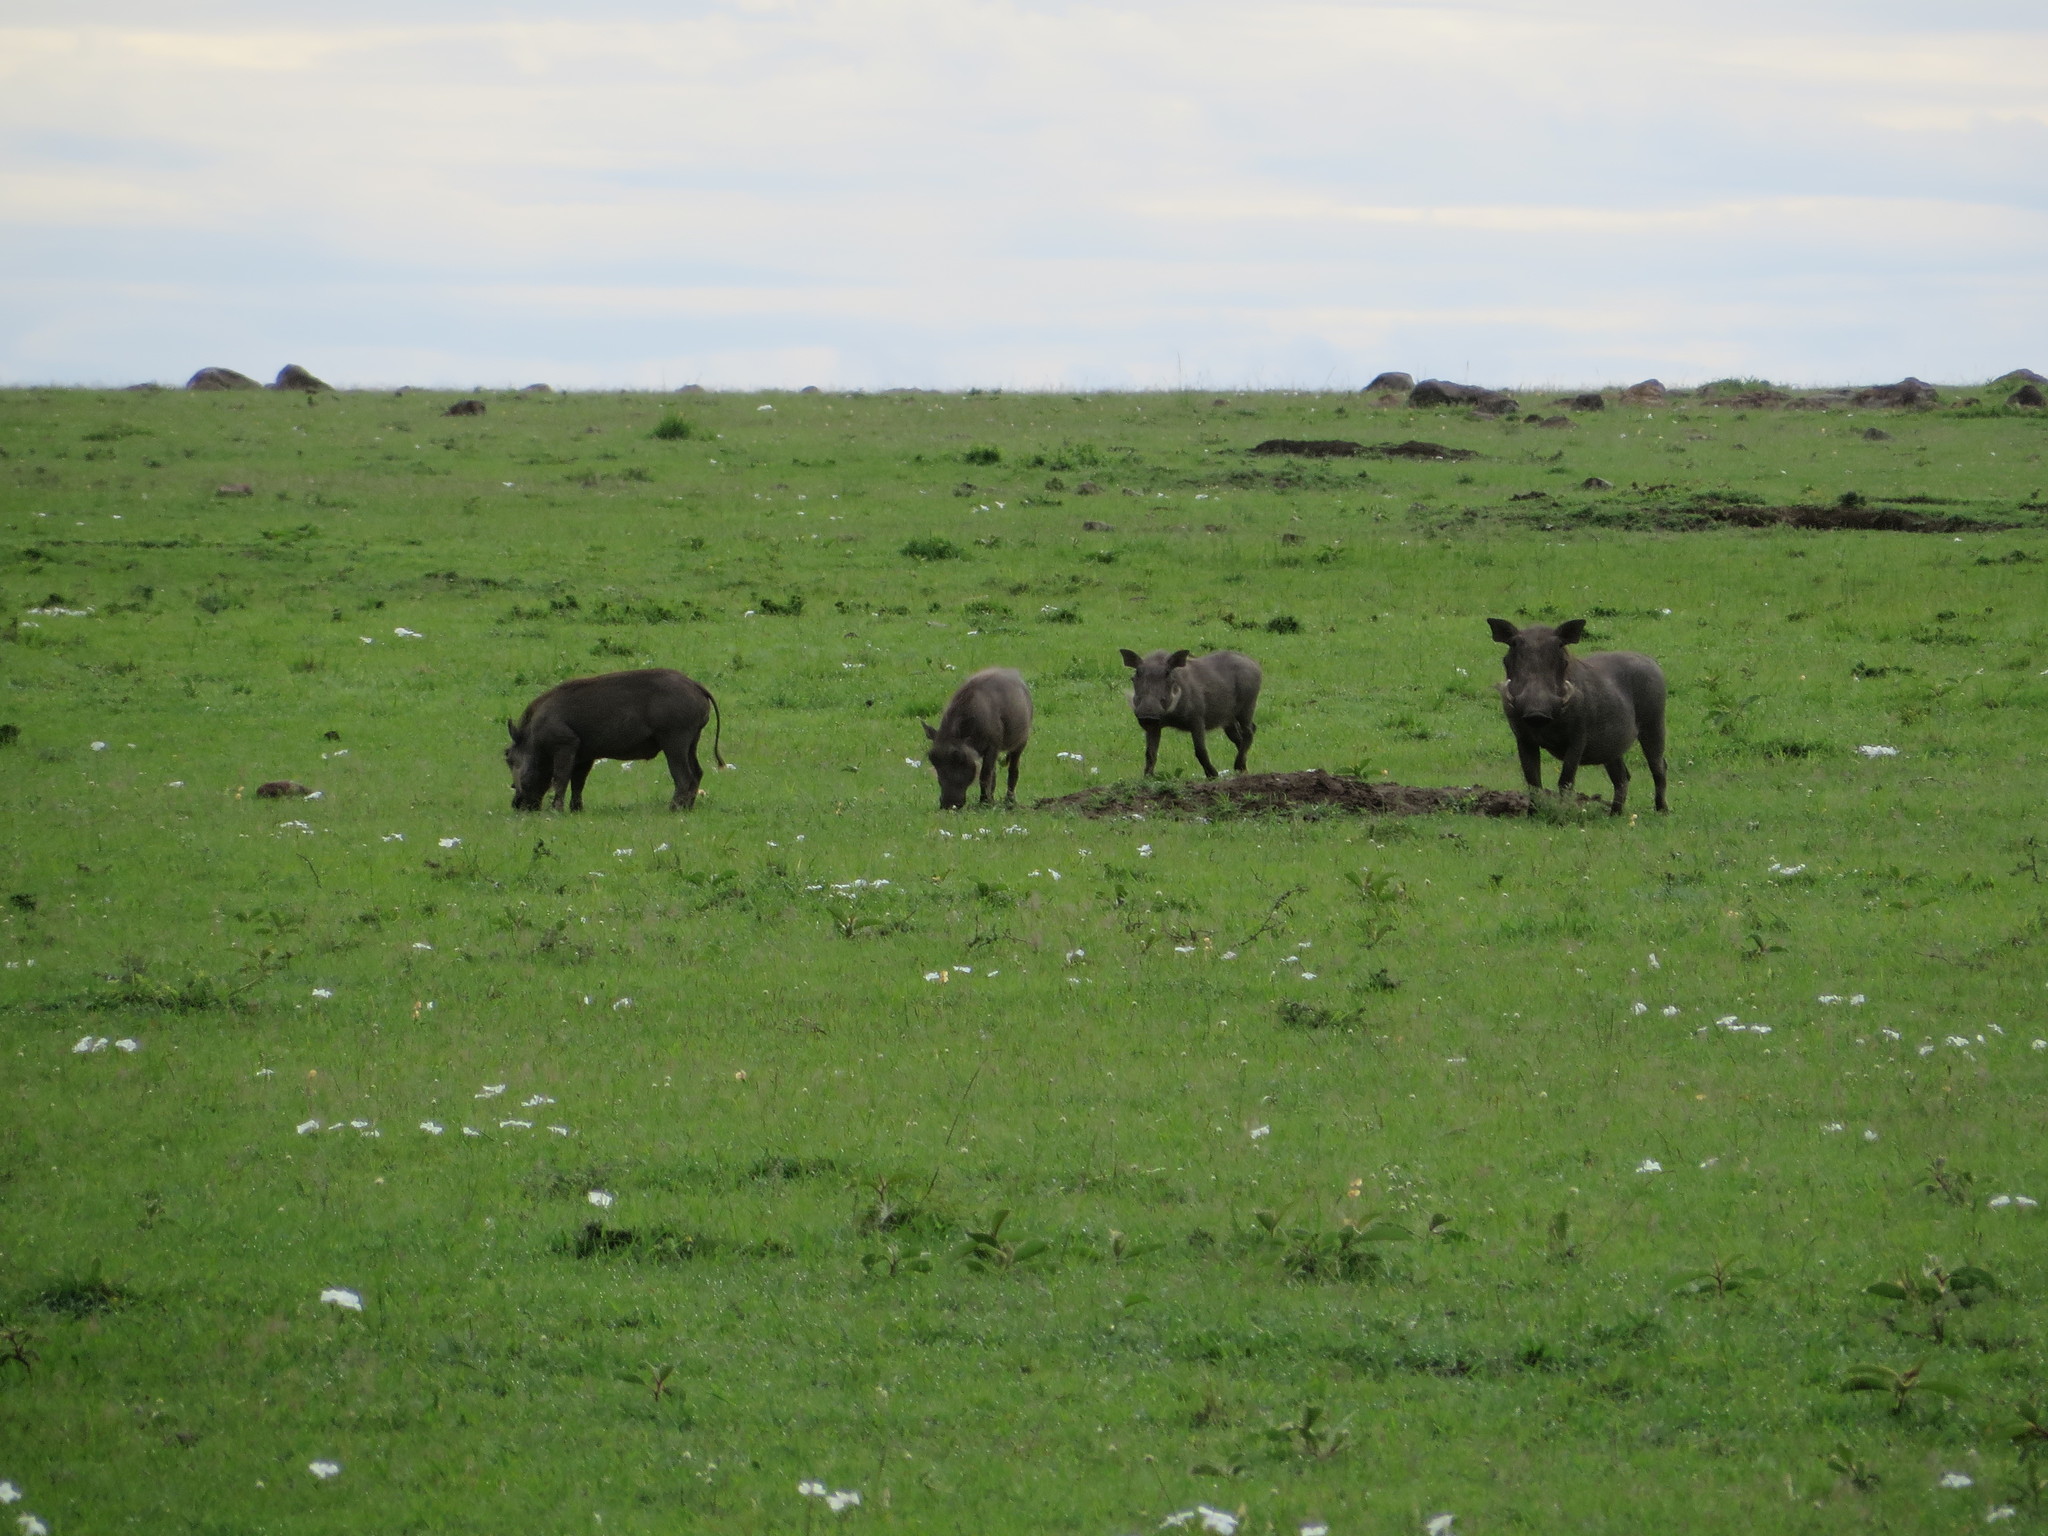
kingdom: Animalia
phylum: Chordata
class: Mammalia
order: Artiodactyla
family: Suidae
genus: Phacochoerus
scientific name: Phacochoerus africanus
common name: Common warthog
